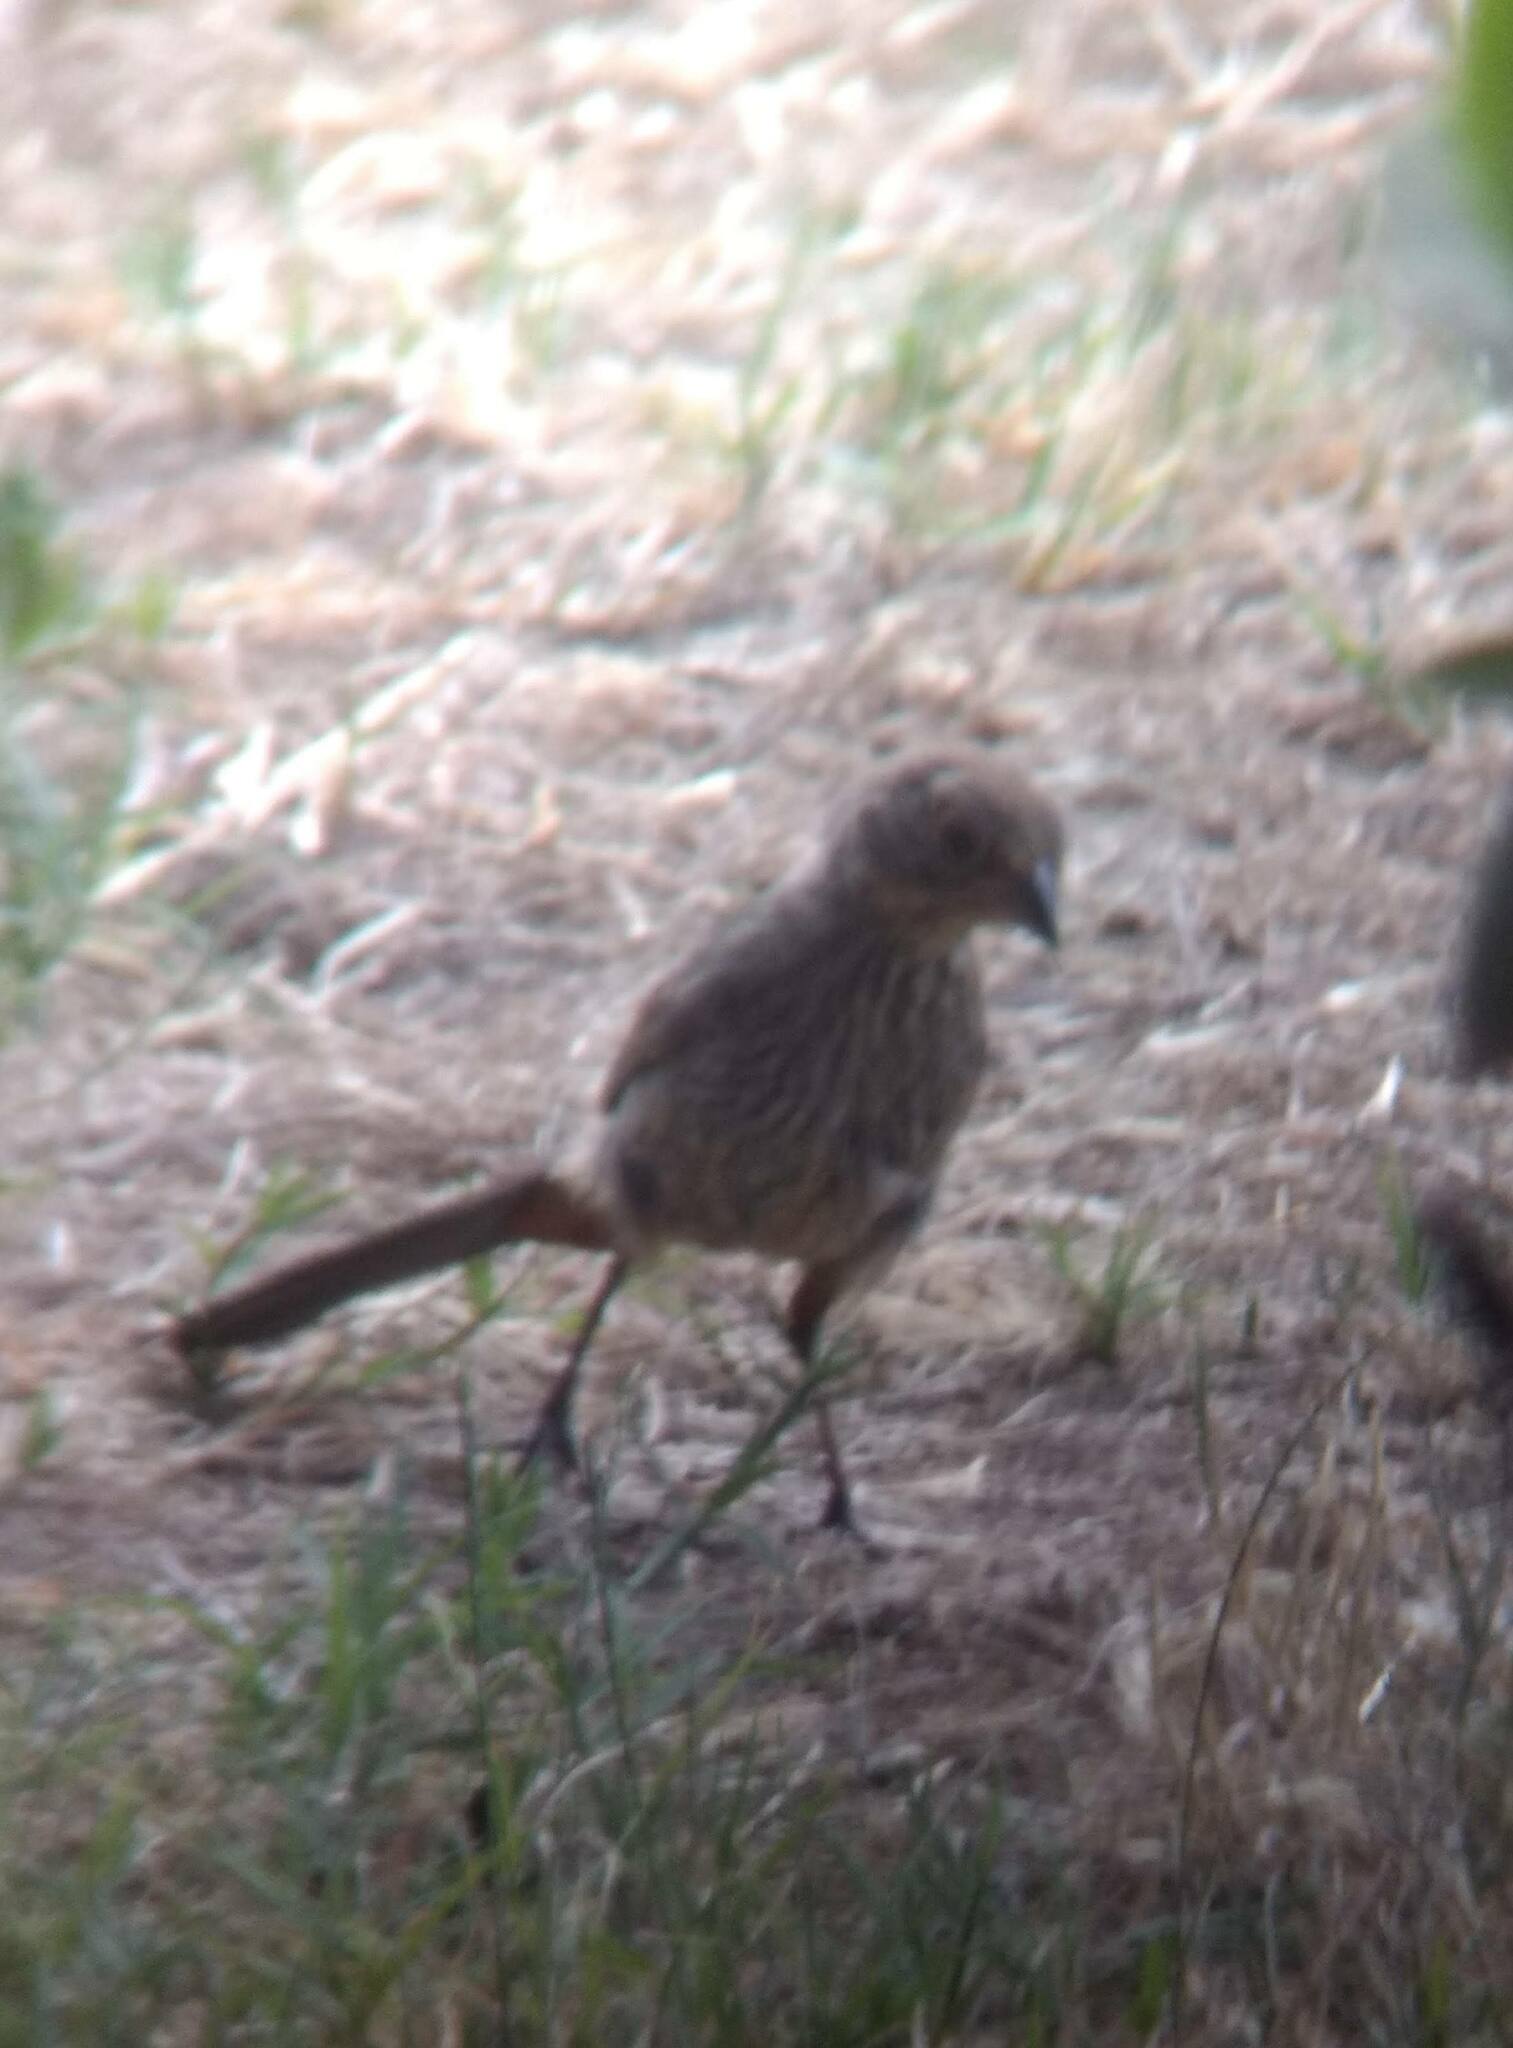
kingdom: Animalia
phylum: Chordata
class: Aves
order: Passeriformes
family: Passerellidae
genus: Melozone
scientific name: Melozone crissalis
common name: California towhee
